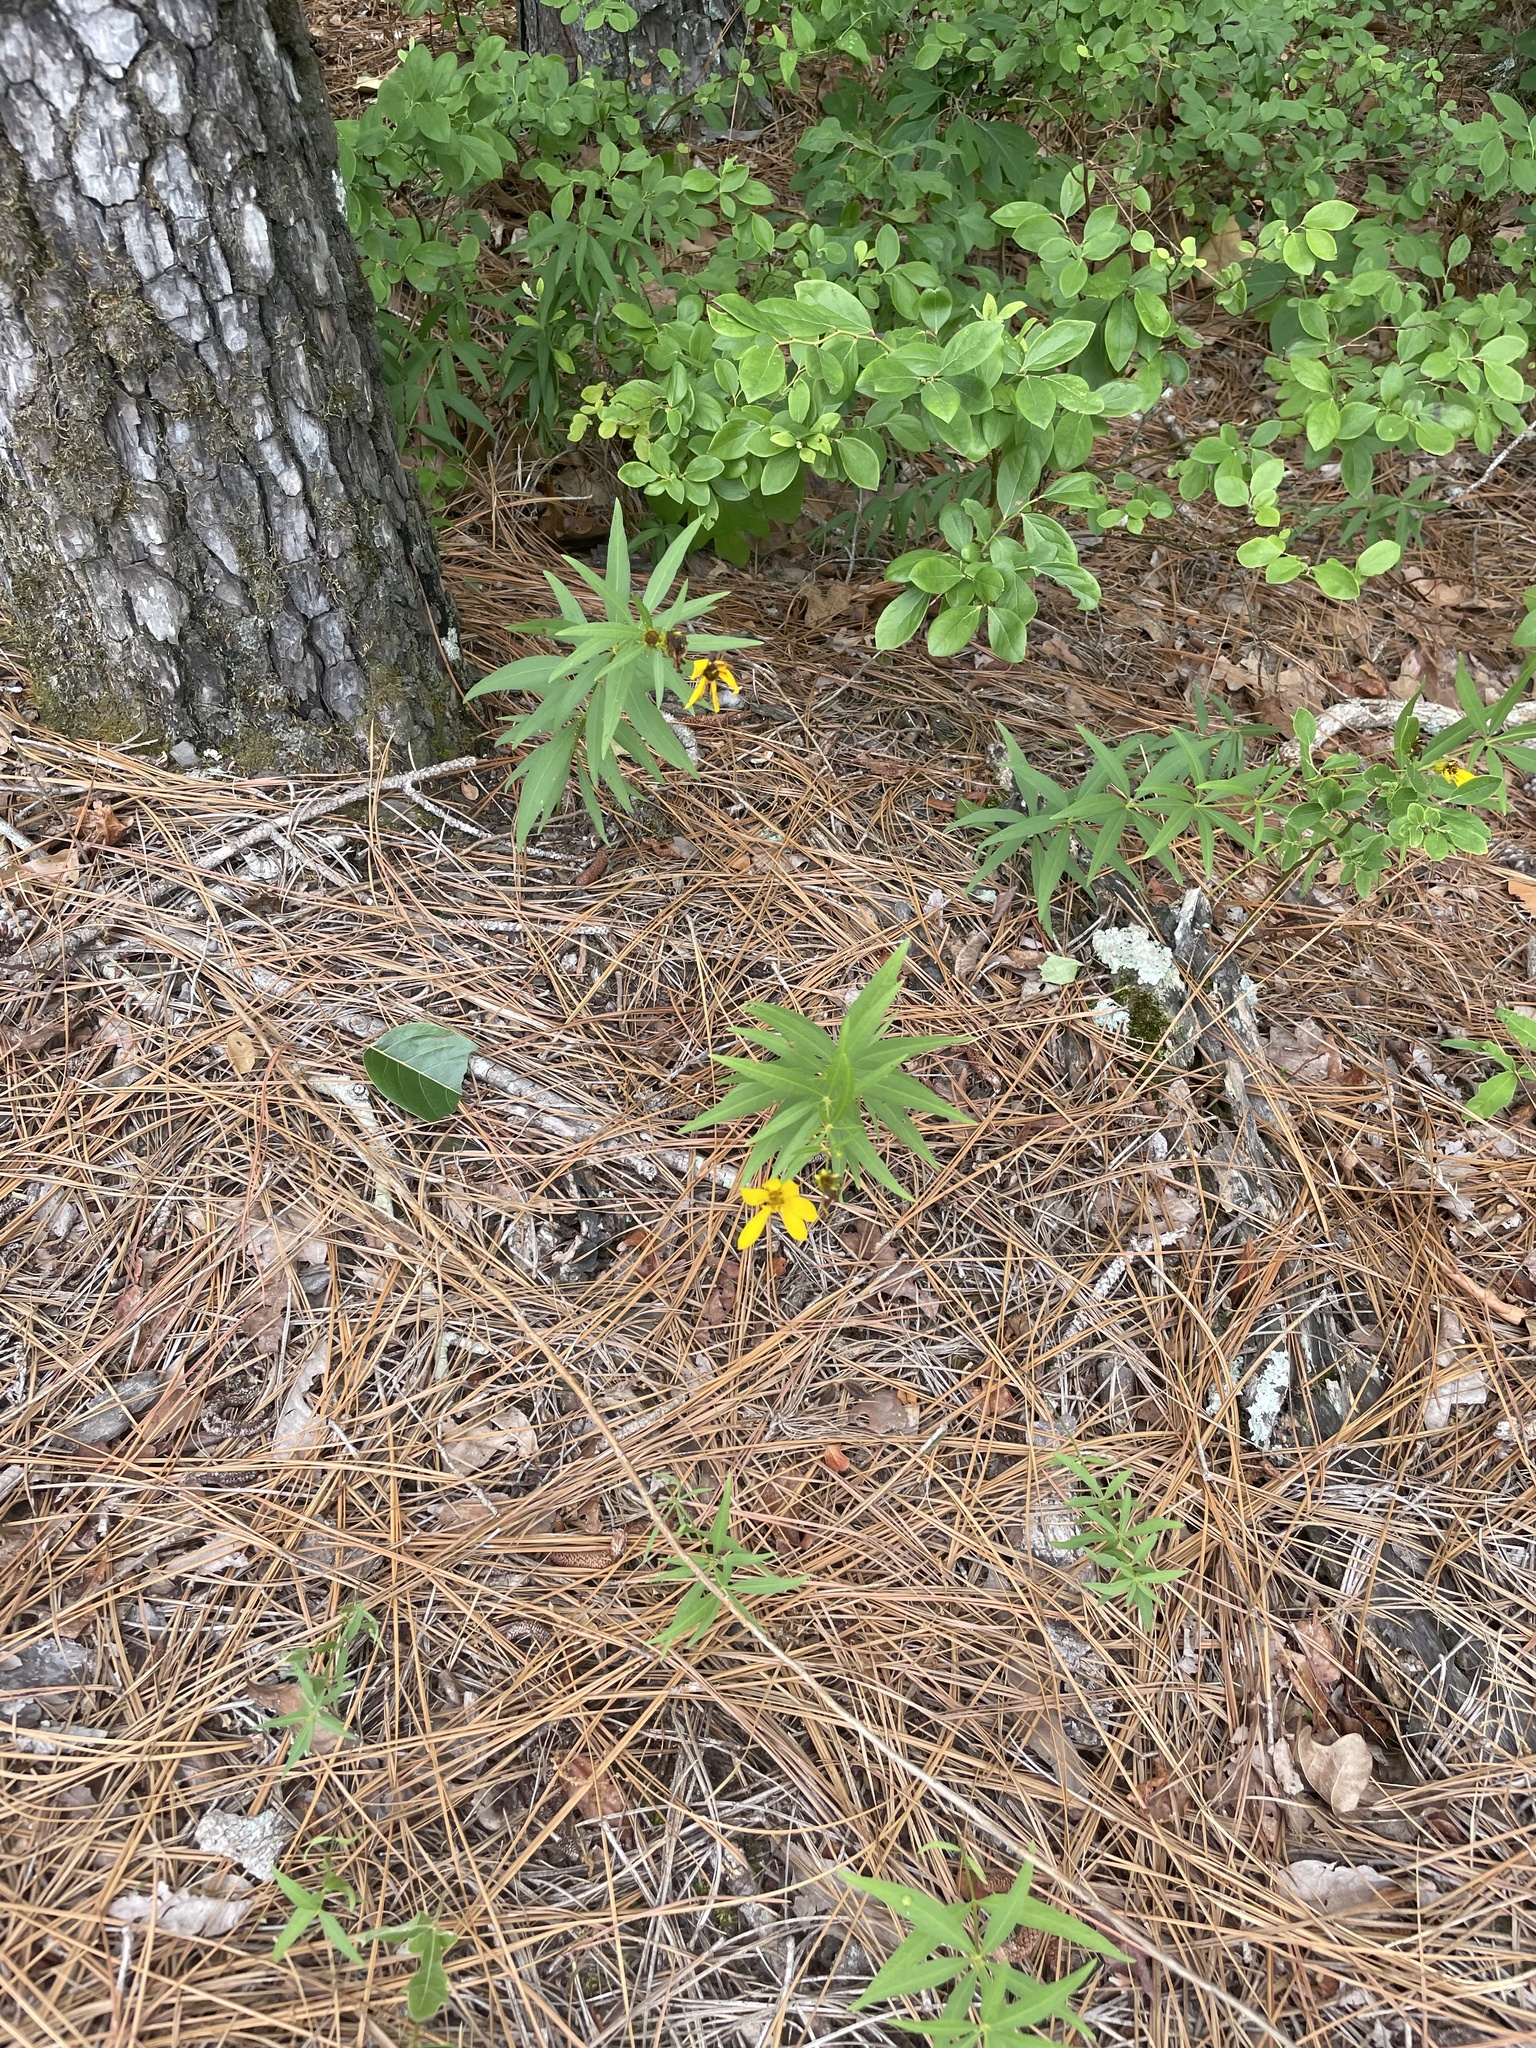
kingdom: Plantae
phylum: Tracheophyta
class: Magnoliopsida
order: Asterales
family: Asteraceae
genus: Coreopsis
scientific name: Coreopsis major
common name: Forest tickseed
